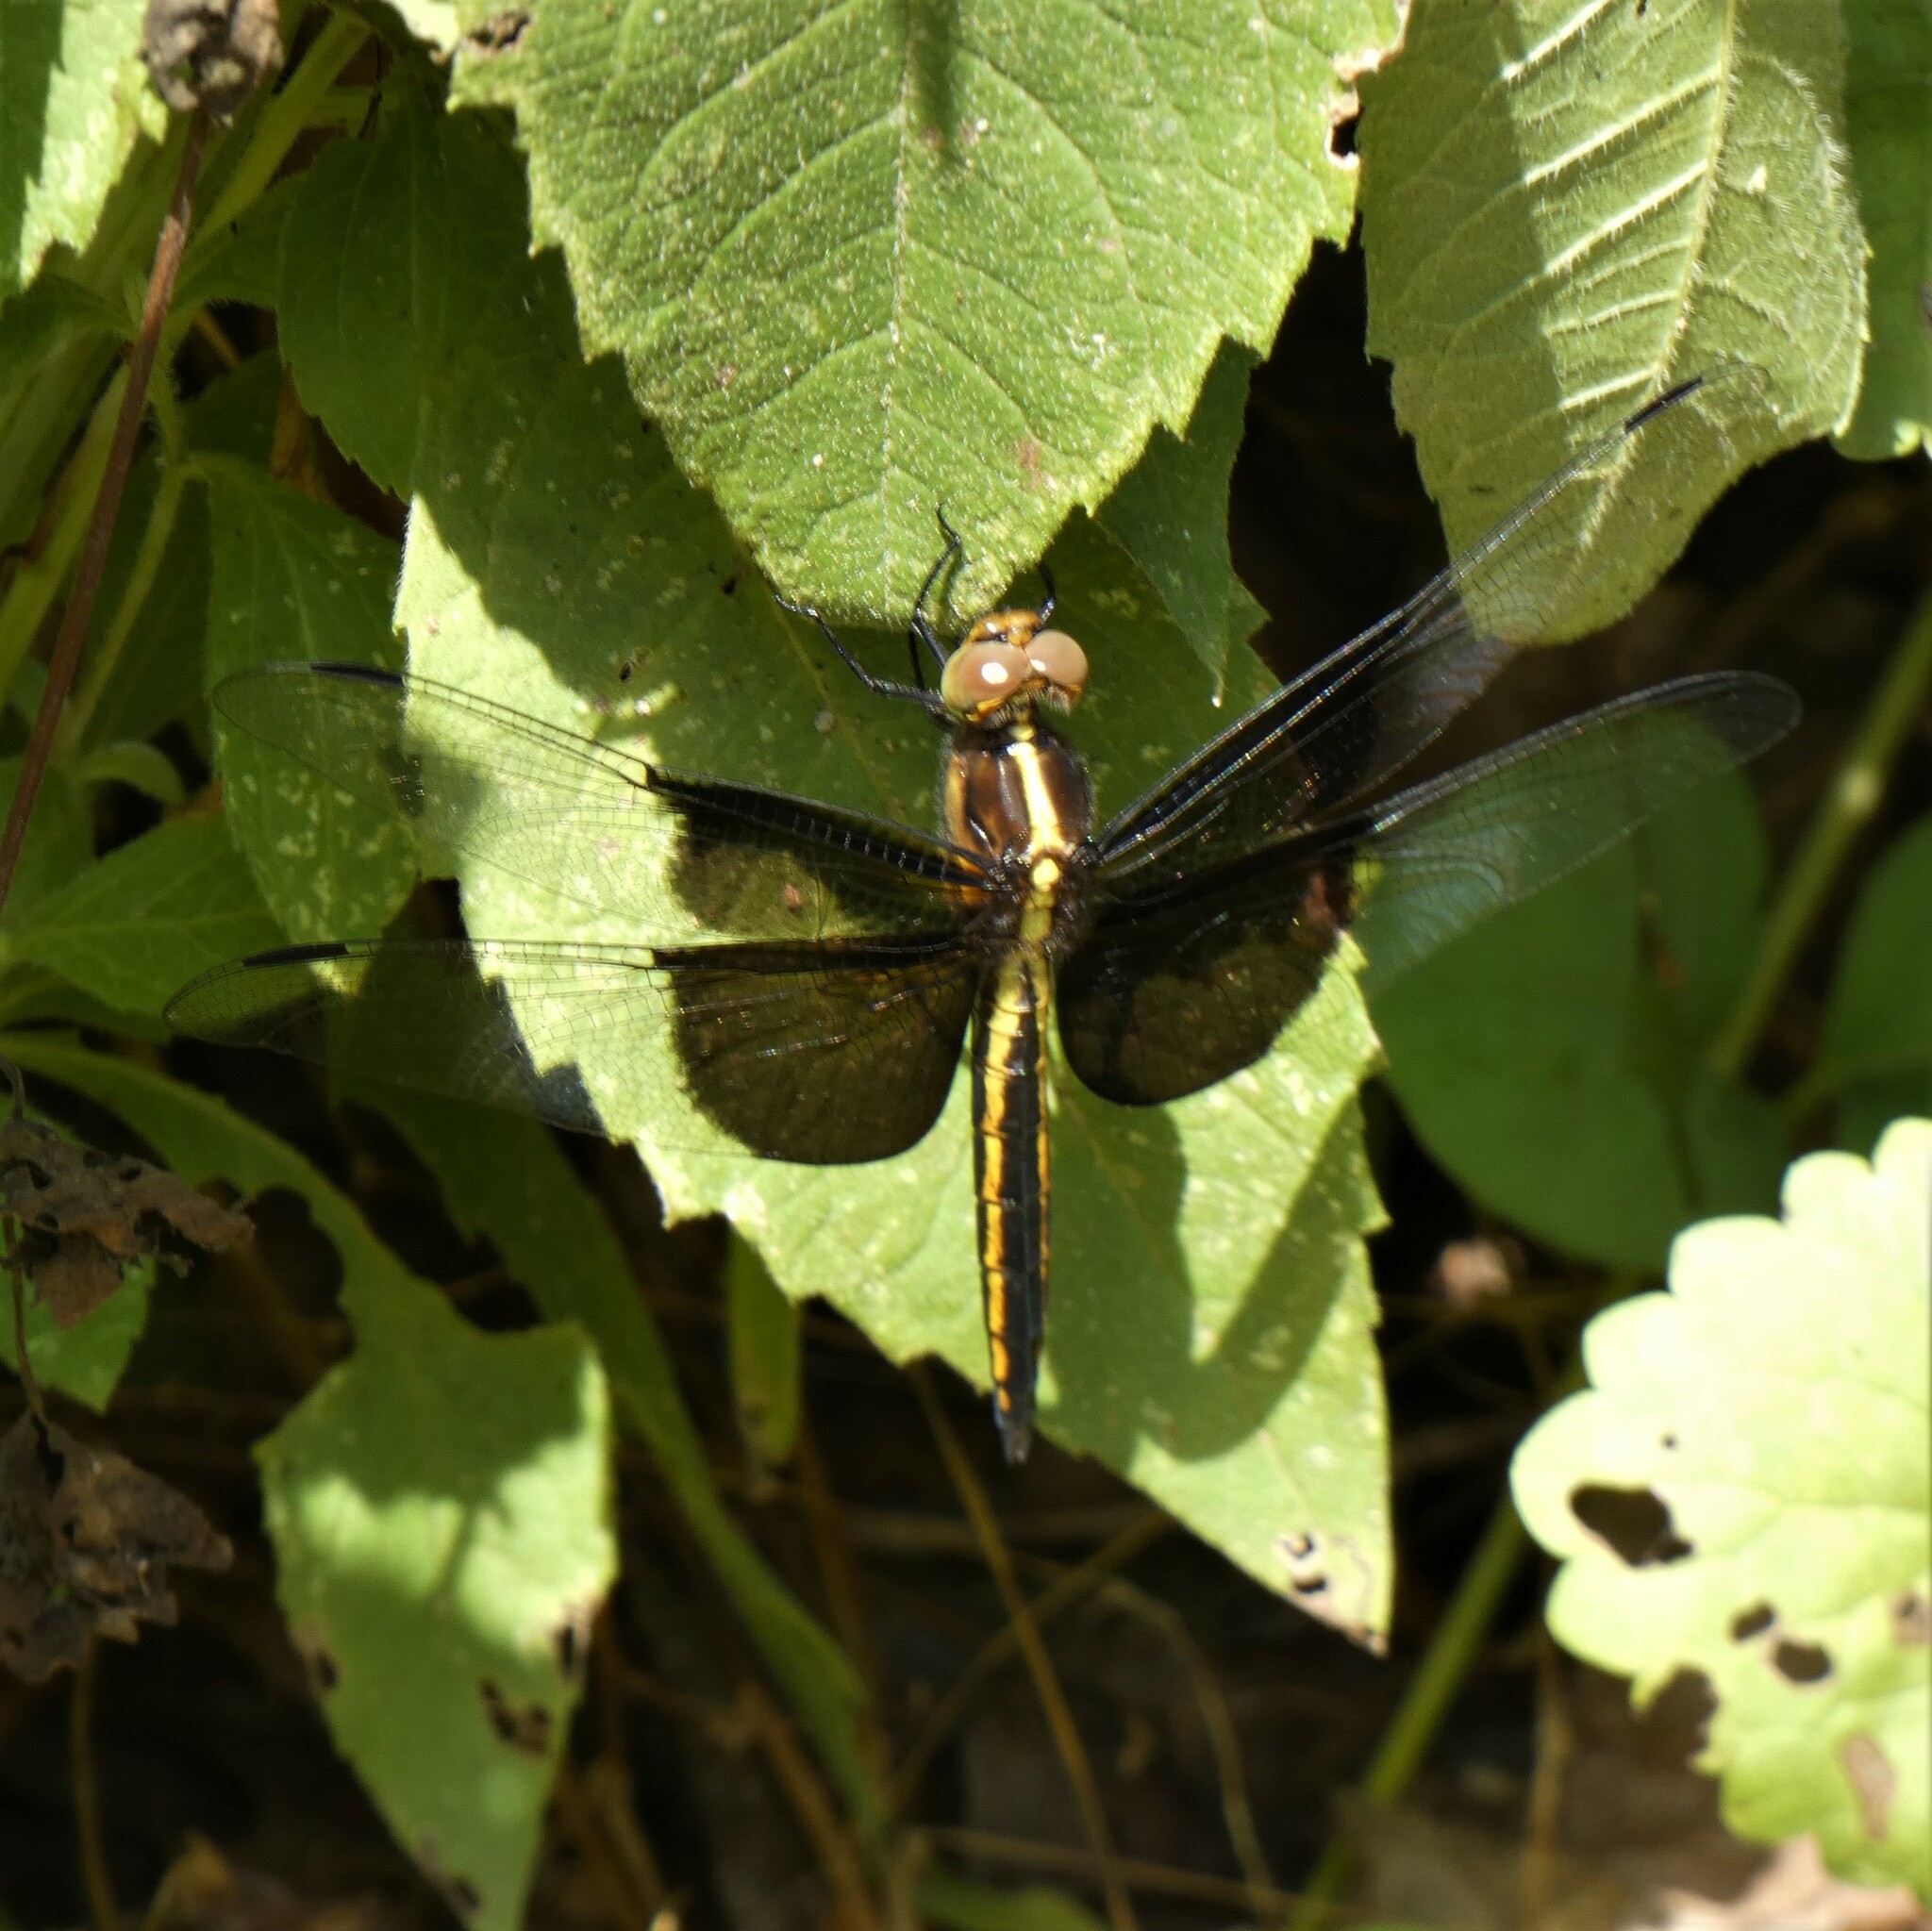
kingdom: Animalia
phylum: Arthropoda
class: Insecta
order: Odonata
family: Libellulidae
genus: Libellula
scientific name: Libellula luctuosa
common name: Widow skimmer
